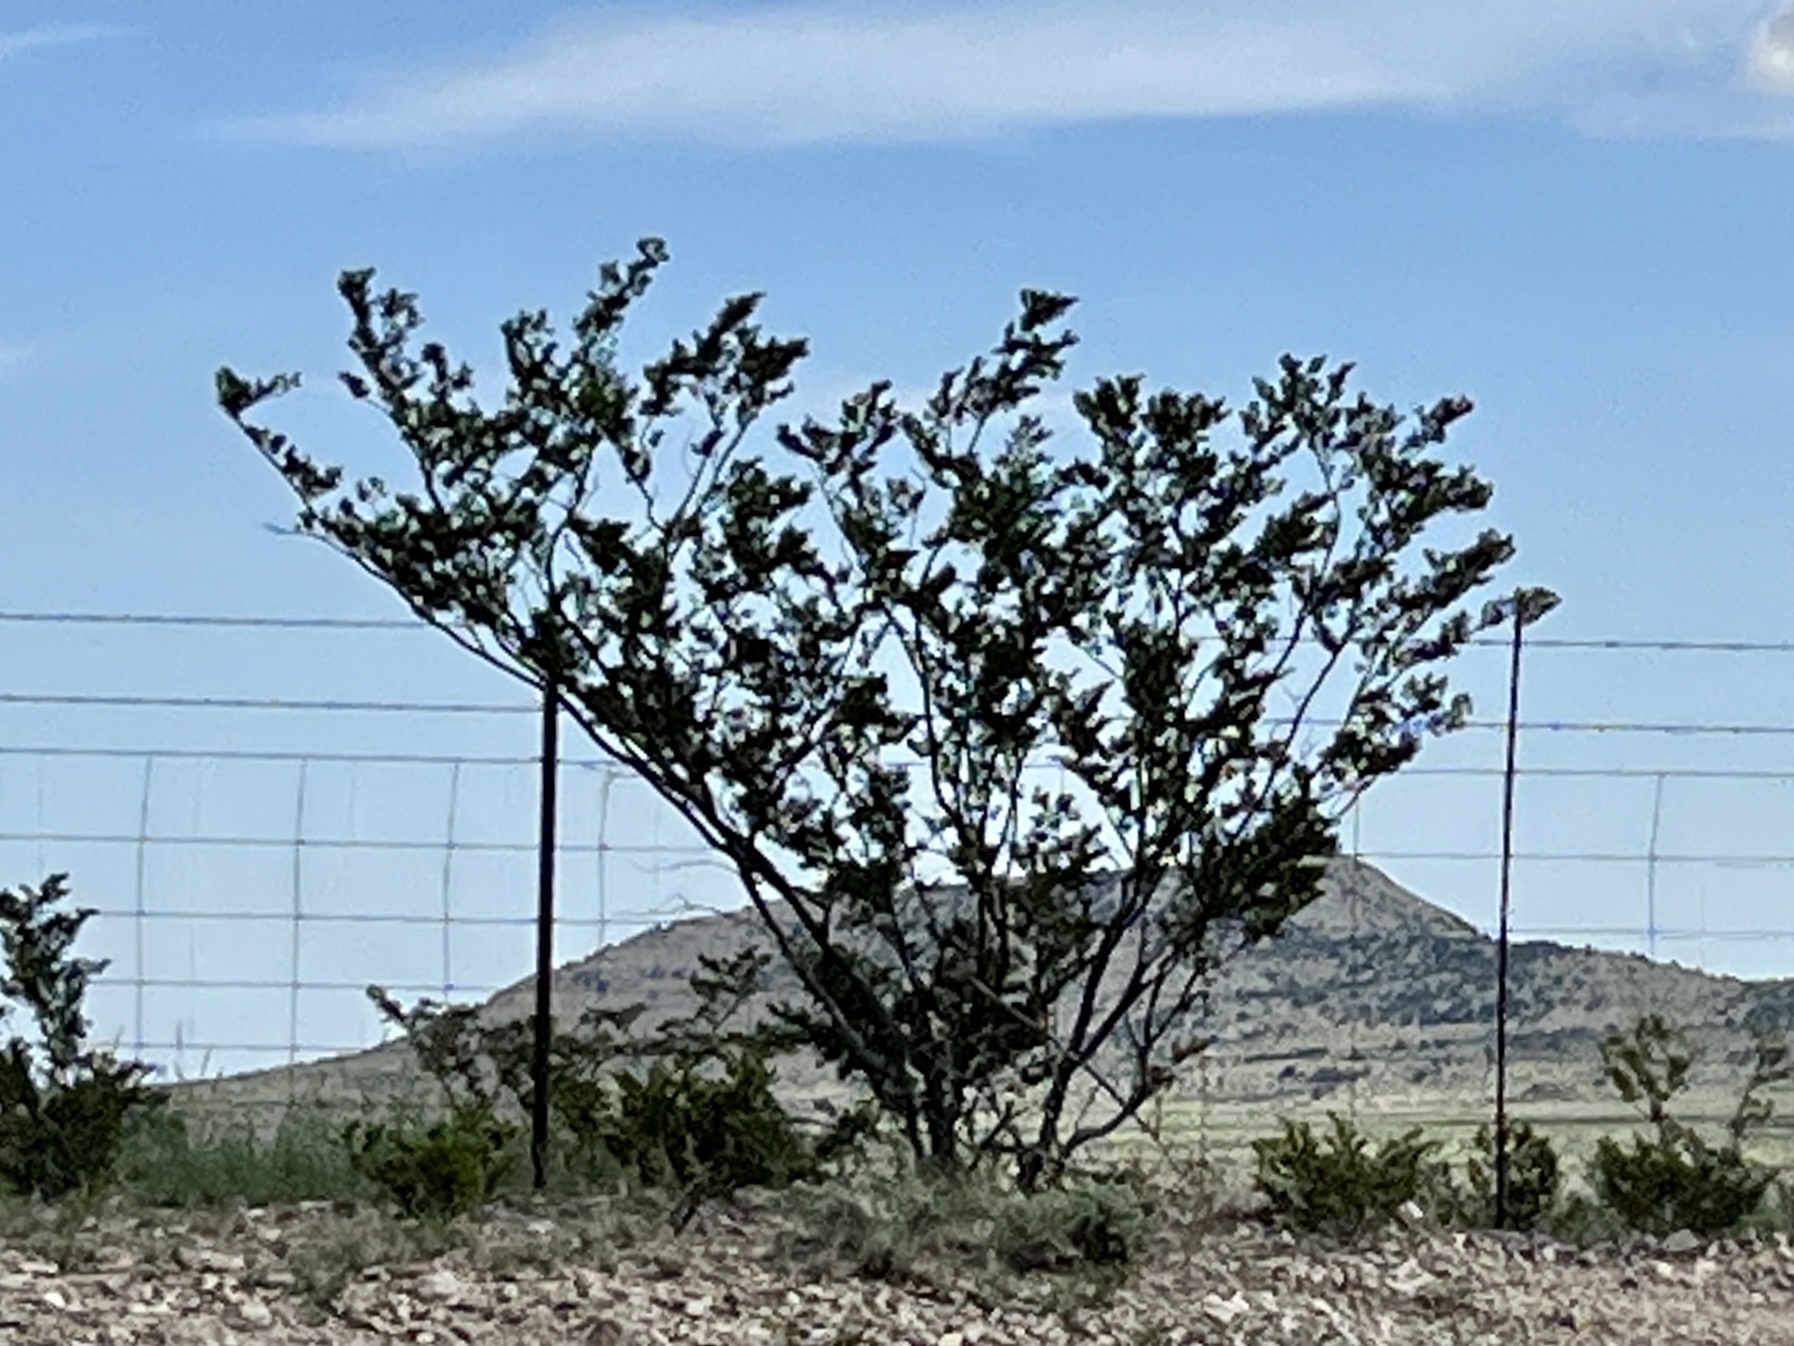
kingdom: Plantae
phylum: Tracheophyta
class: Magnoliopsida
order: Zygophyllales
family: Zygophyllaceae
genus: Larrea
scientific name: Larrea tridentata
